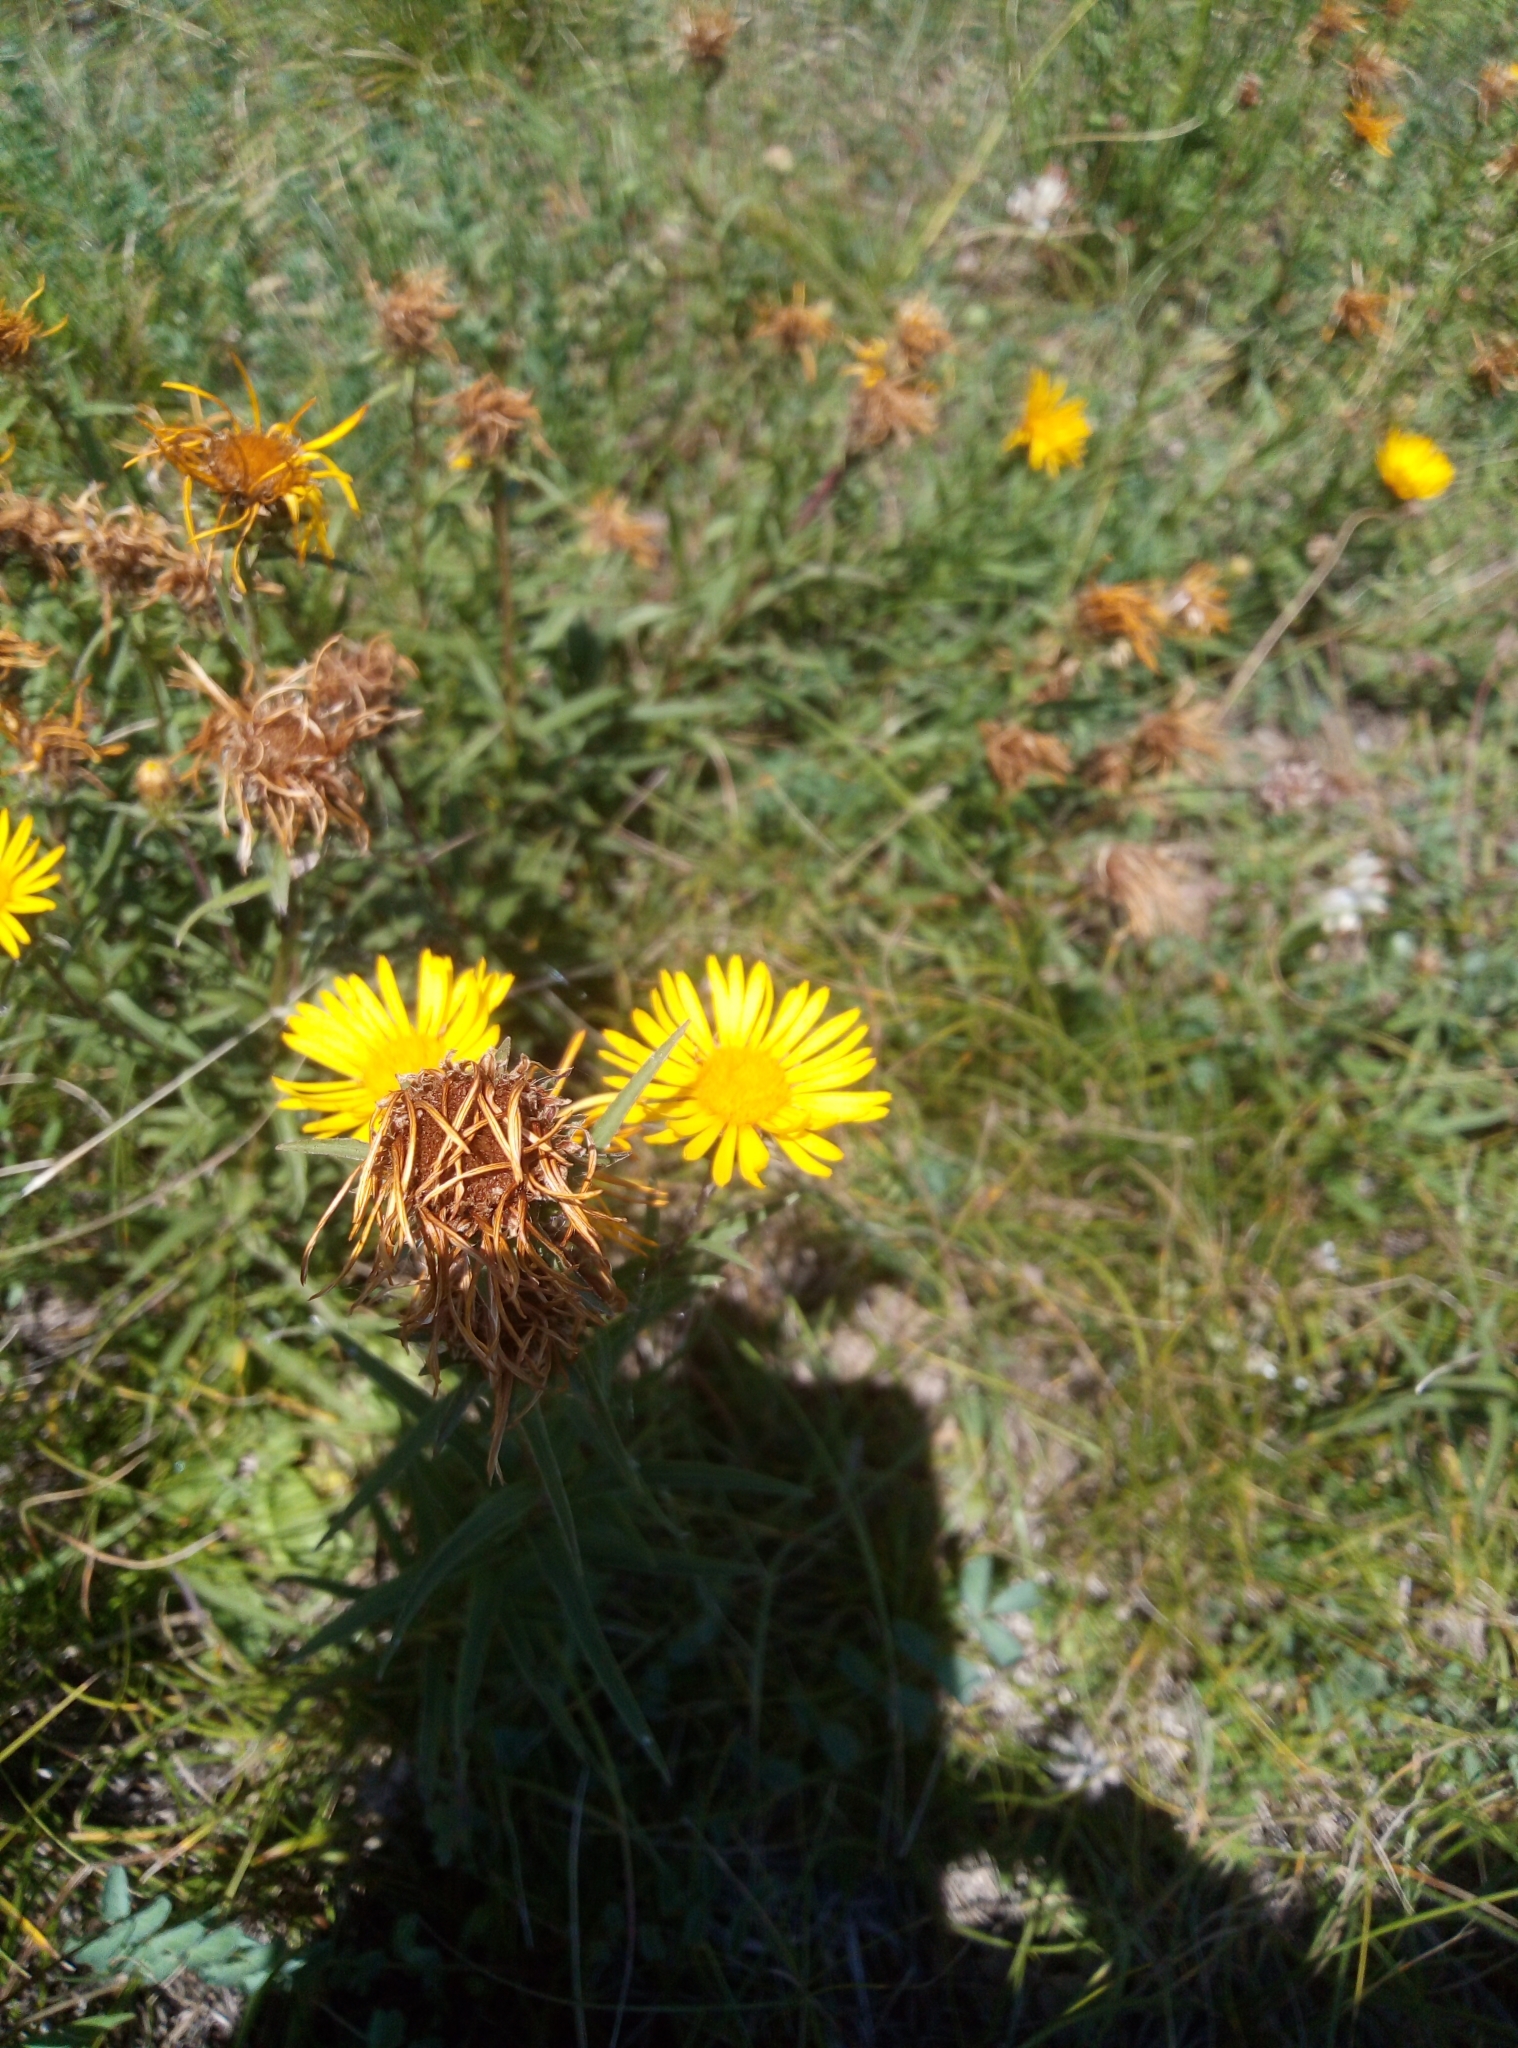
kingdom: Plantae
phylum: Tracheophyta
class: Magnoliopsida
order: Asterales
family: Asteraceae
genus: Pentanema
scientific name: Pentanema ensifolium
